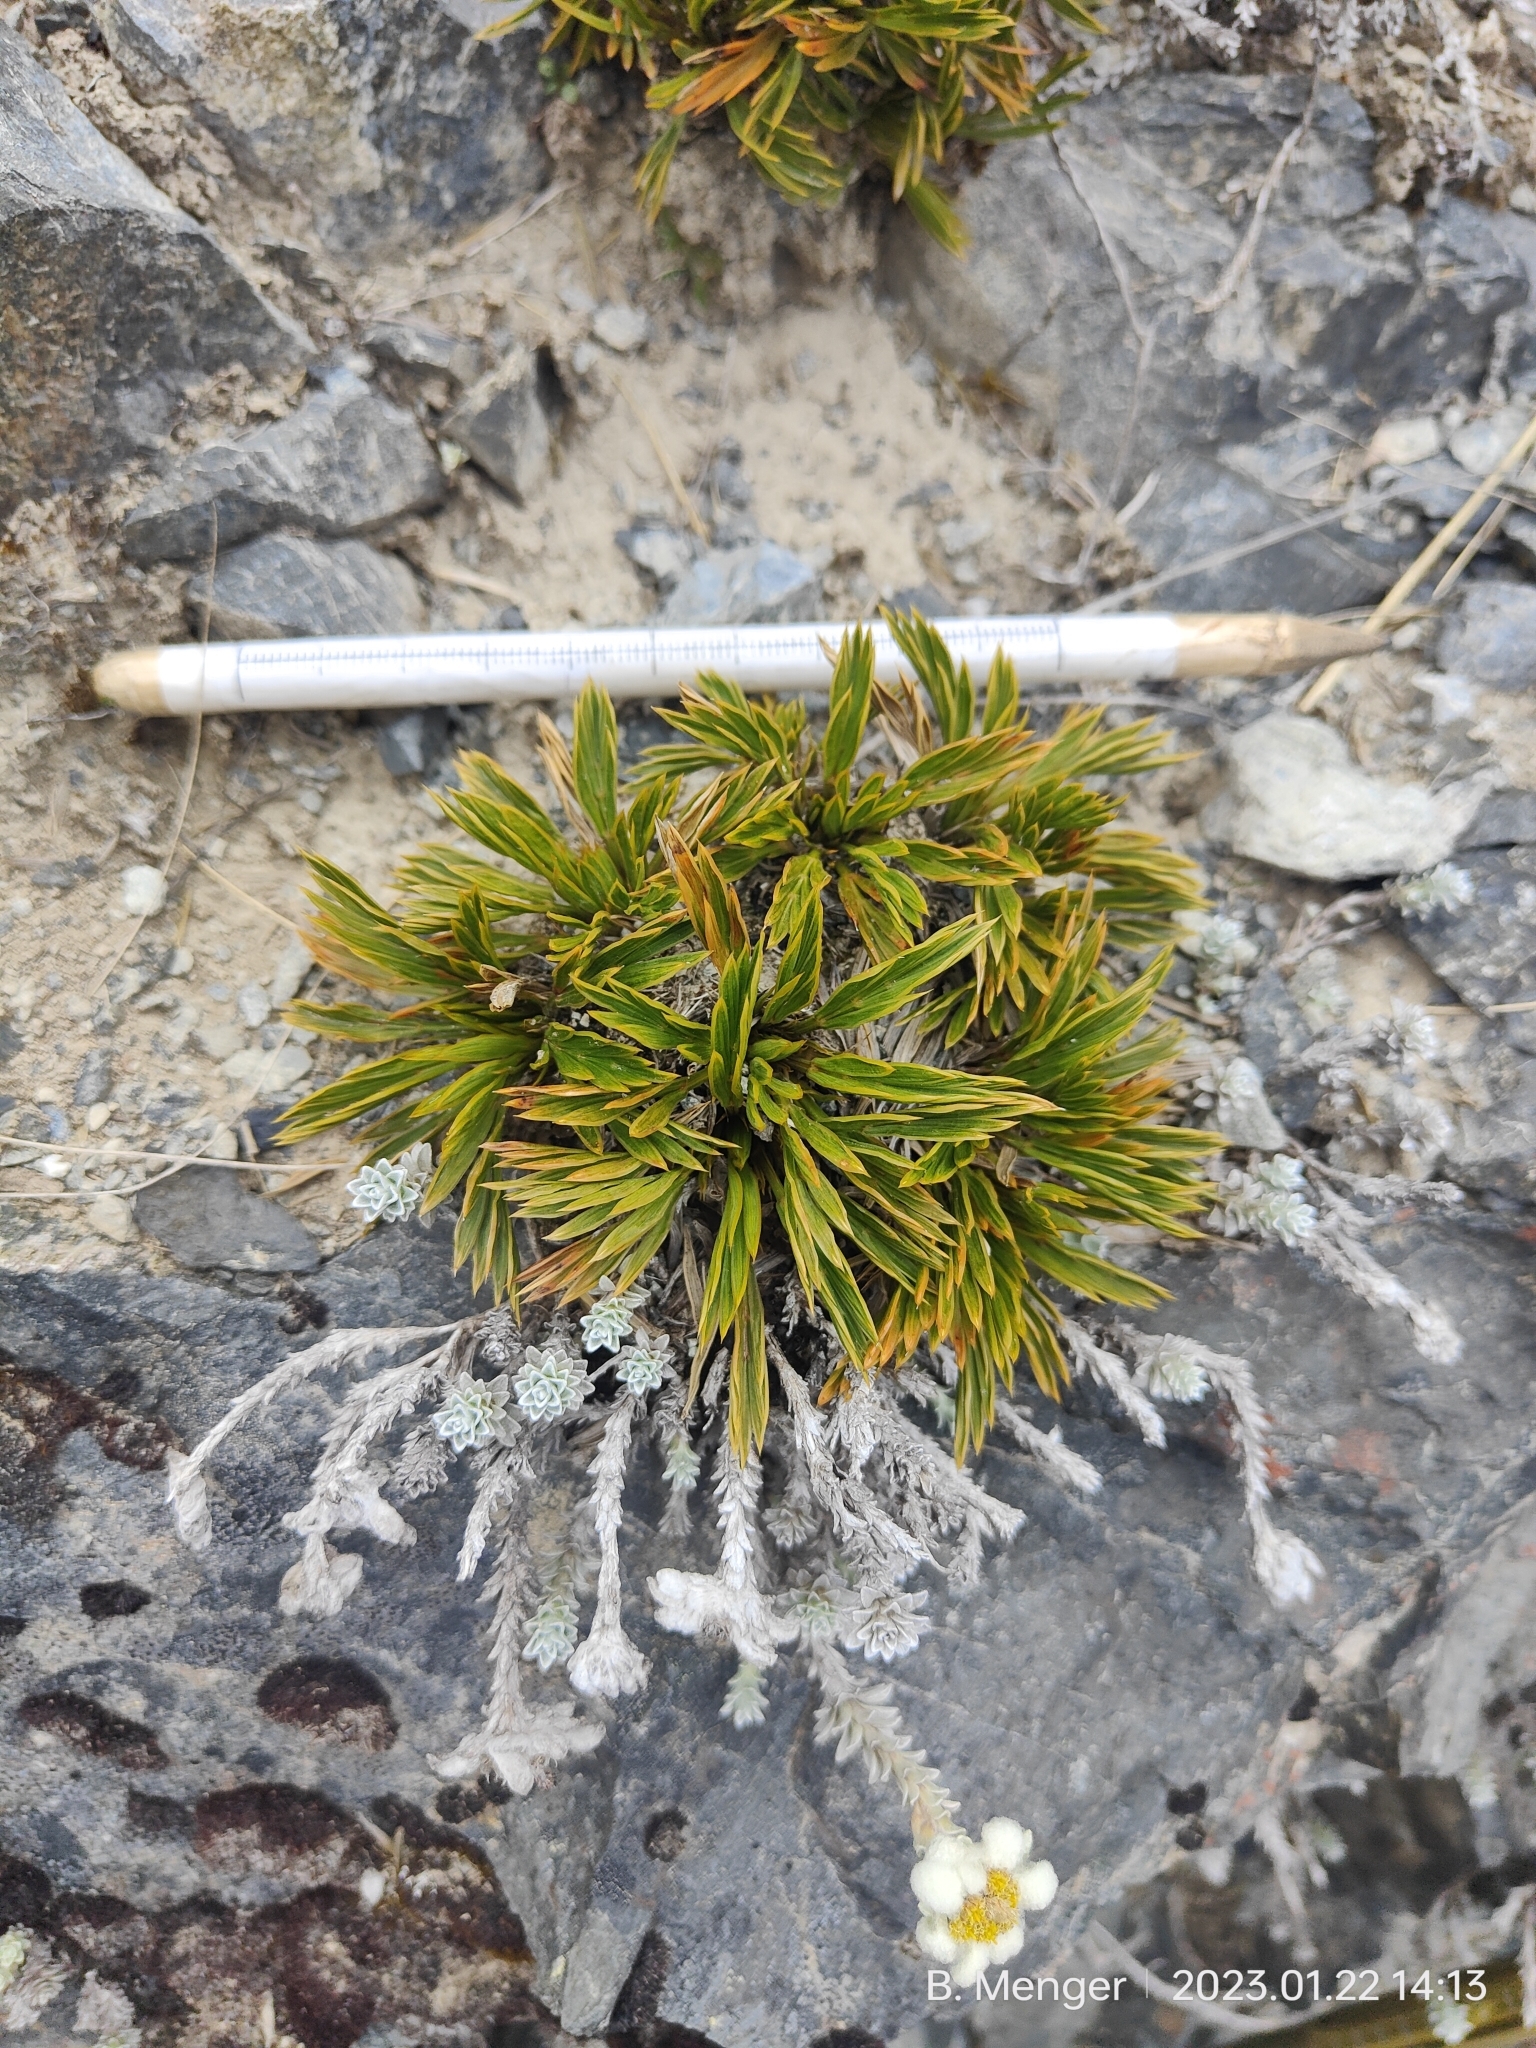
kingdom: Plantae
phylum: Tracheophyta
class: Magnoliopsida
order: Apiales
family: Apiaceae
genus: Aciphylla
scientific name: Aciphylla monroi
